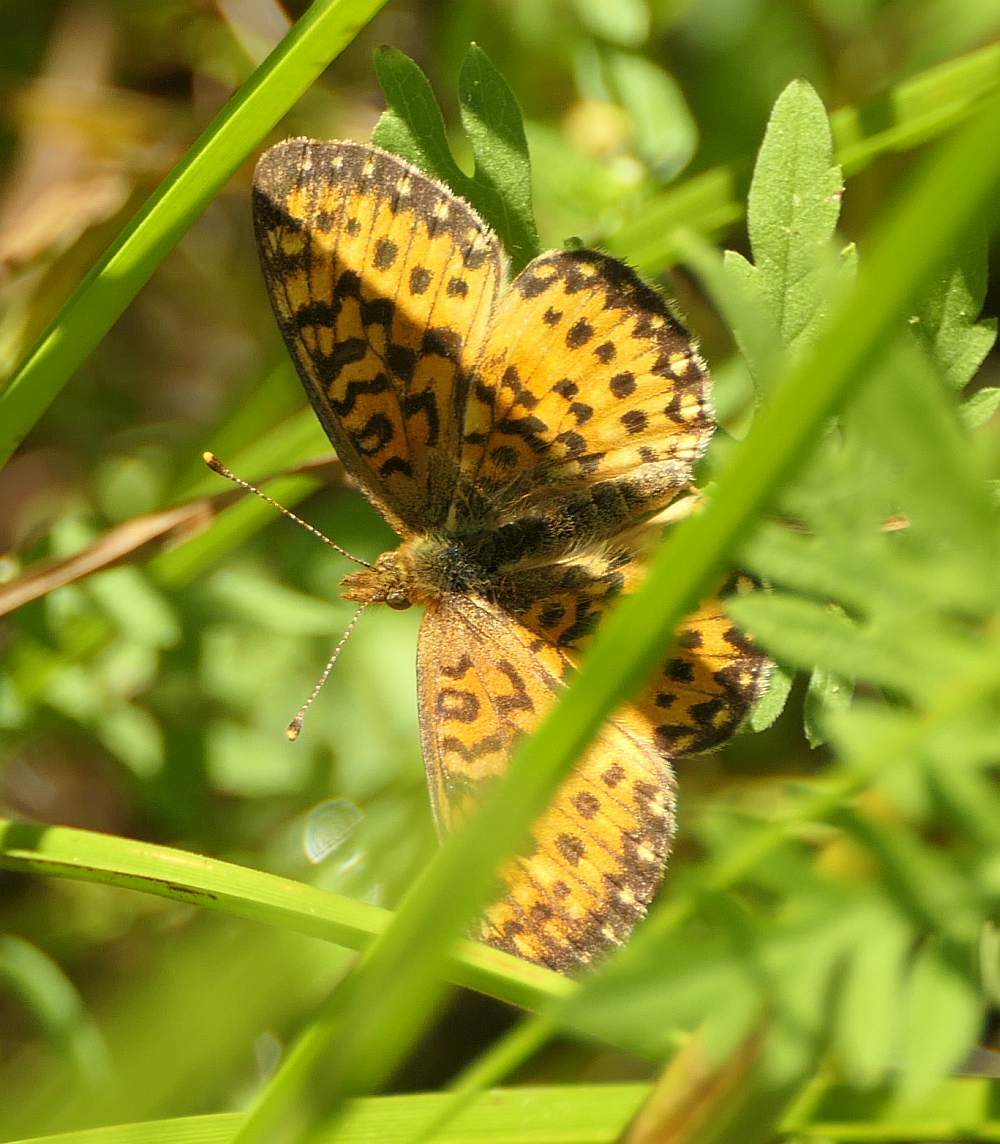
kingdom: Animalia
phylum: Arthropoda
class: Insecta
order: Lepidoptera
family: Nymphalidae
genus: Boloria
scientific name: Boloria
